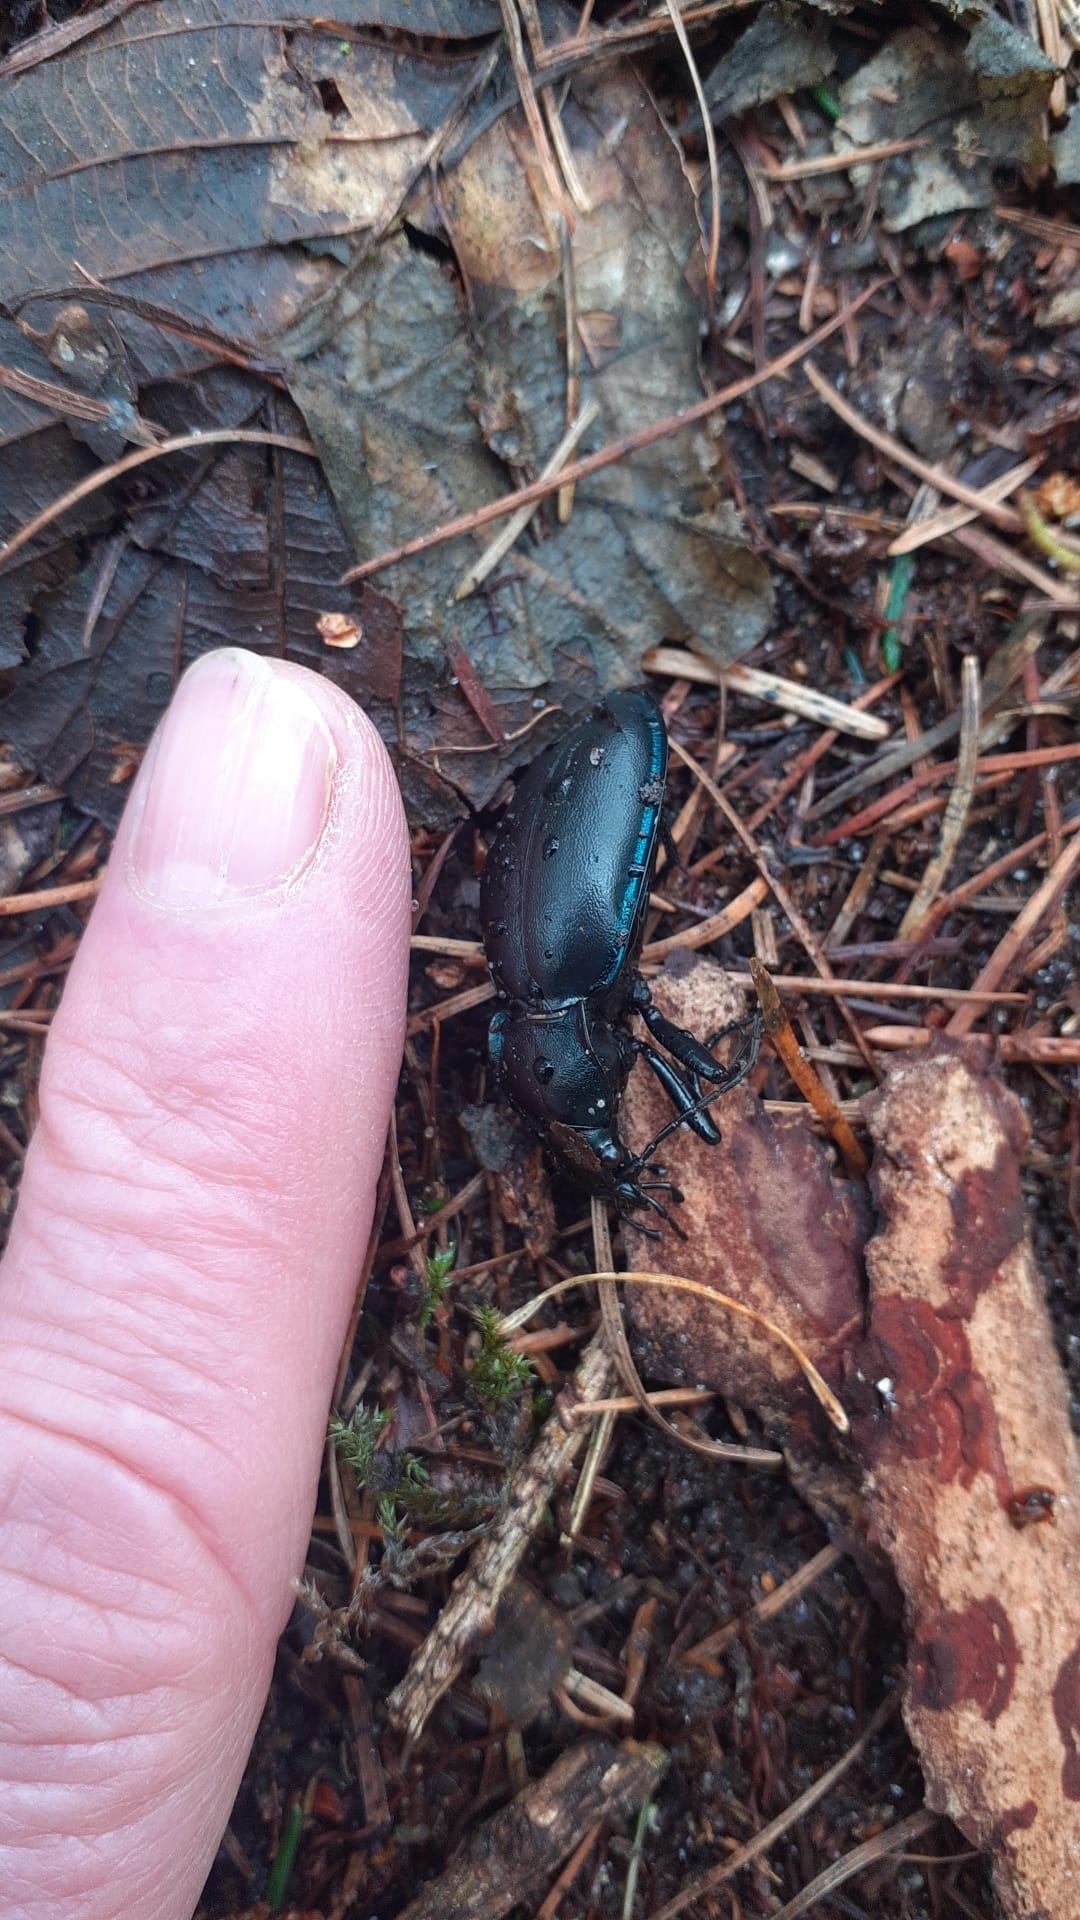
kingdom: Animalia
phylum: Arthropoda
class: Insecta
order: Coleoptera
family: Carabidae
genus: Carabus
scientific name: Carabus violaceus
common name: Violet ground beetle
